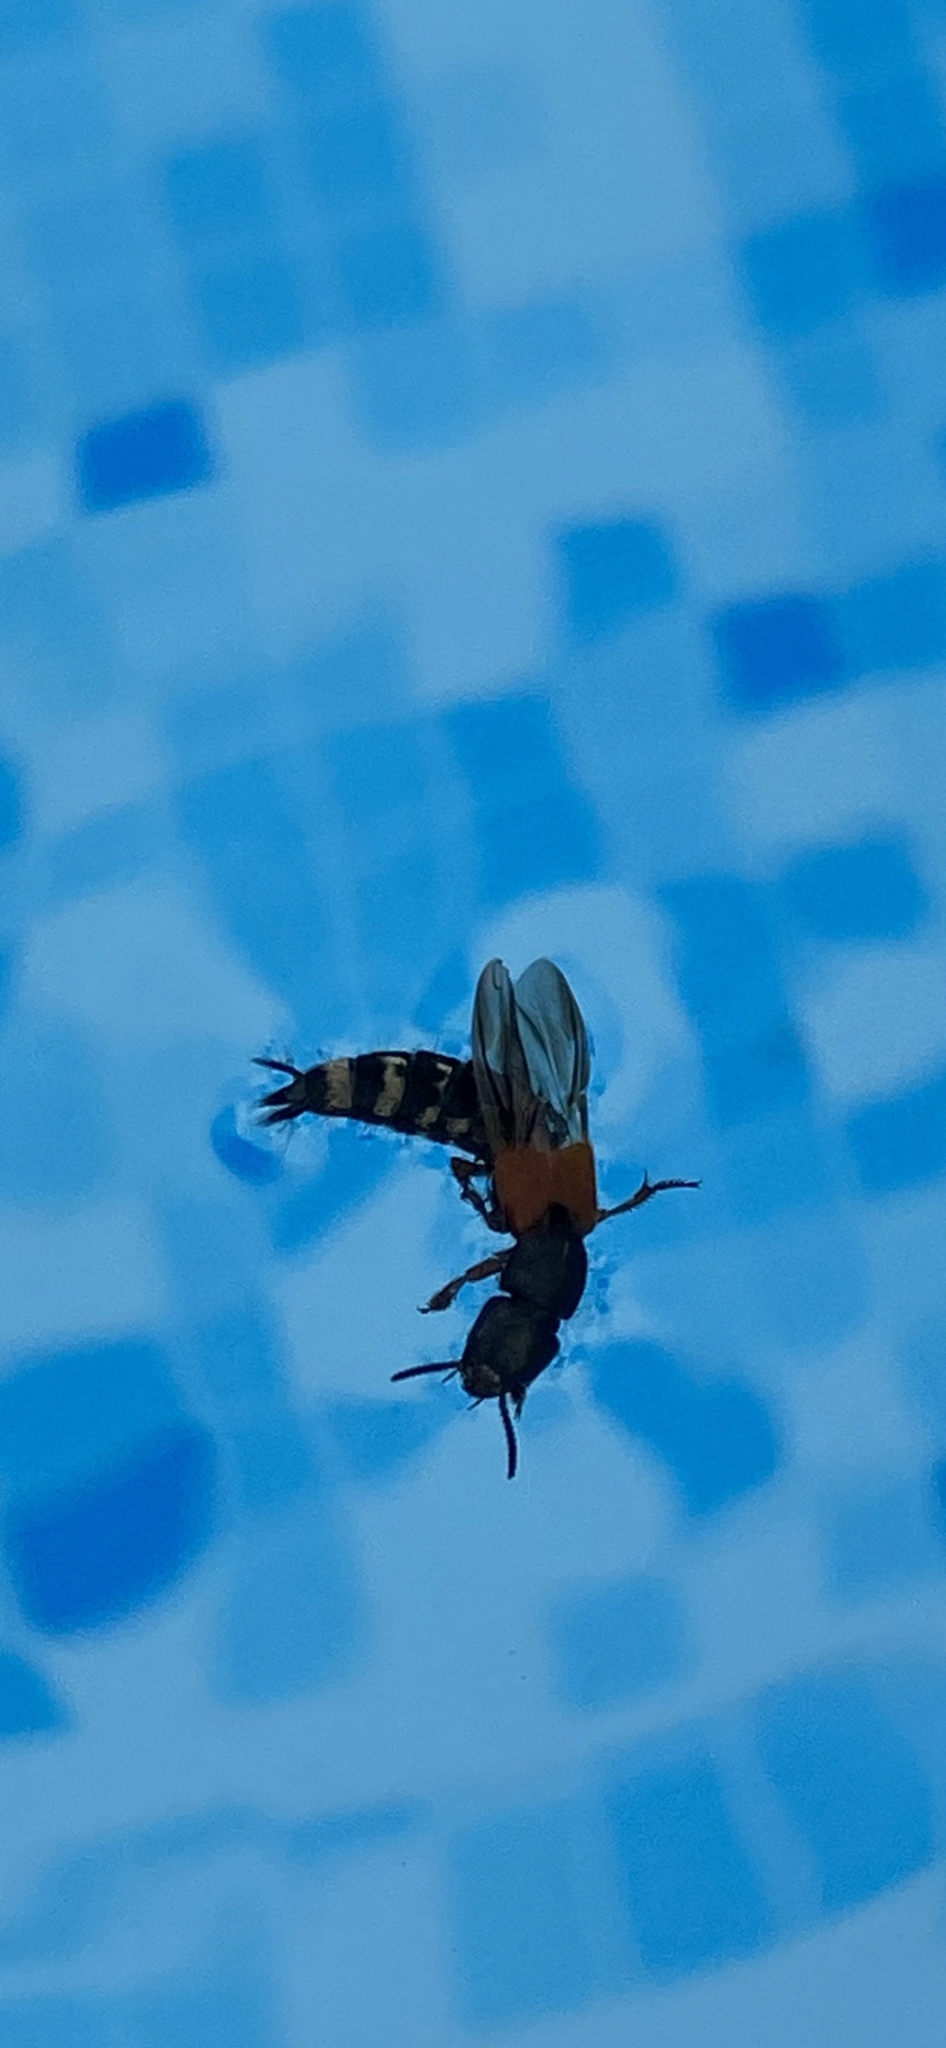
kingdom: Animalia
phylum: Arthropoda
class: Insecta
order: Coleoptera
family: Staphylinidae
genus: Platydracus
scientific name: Platydracus stercorarius
